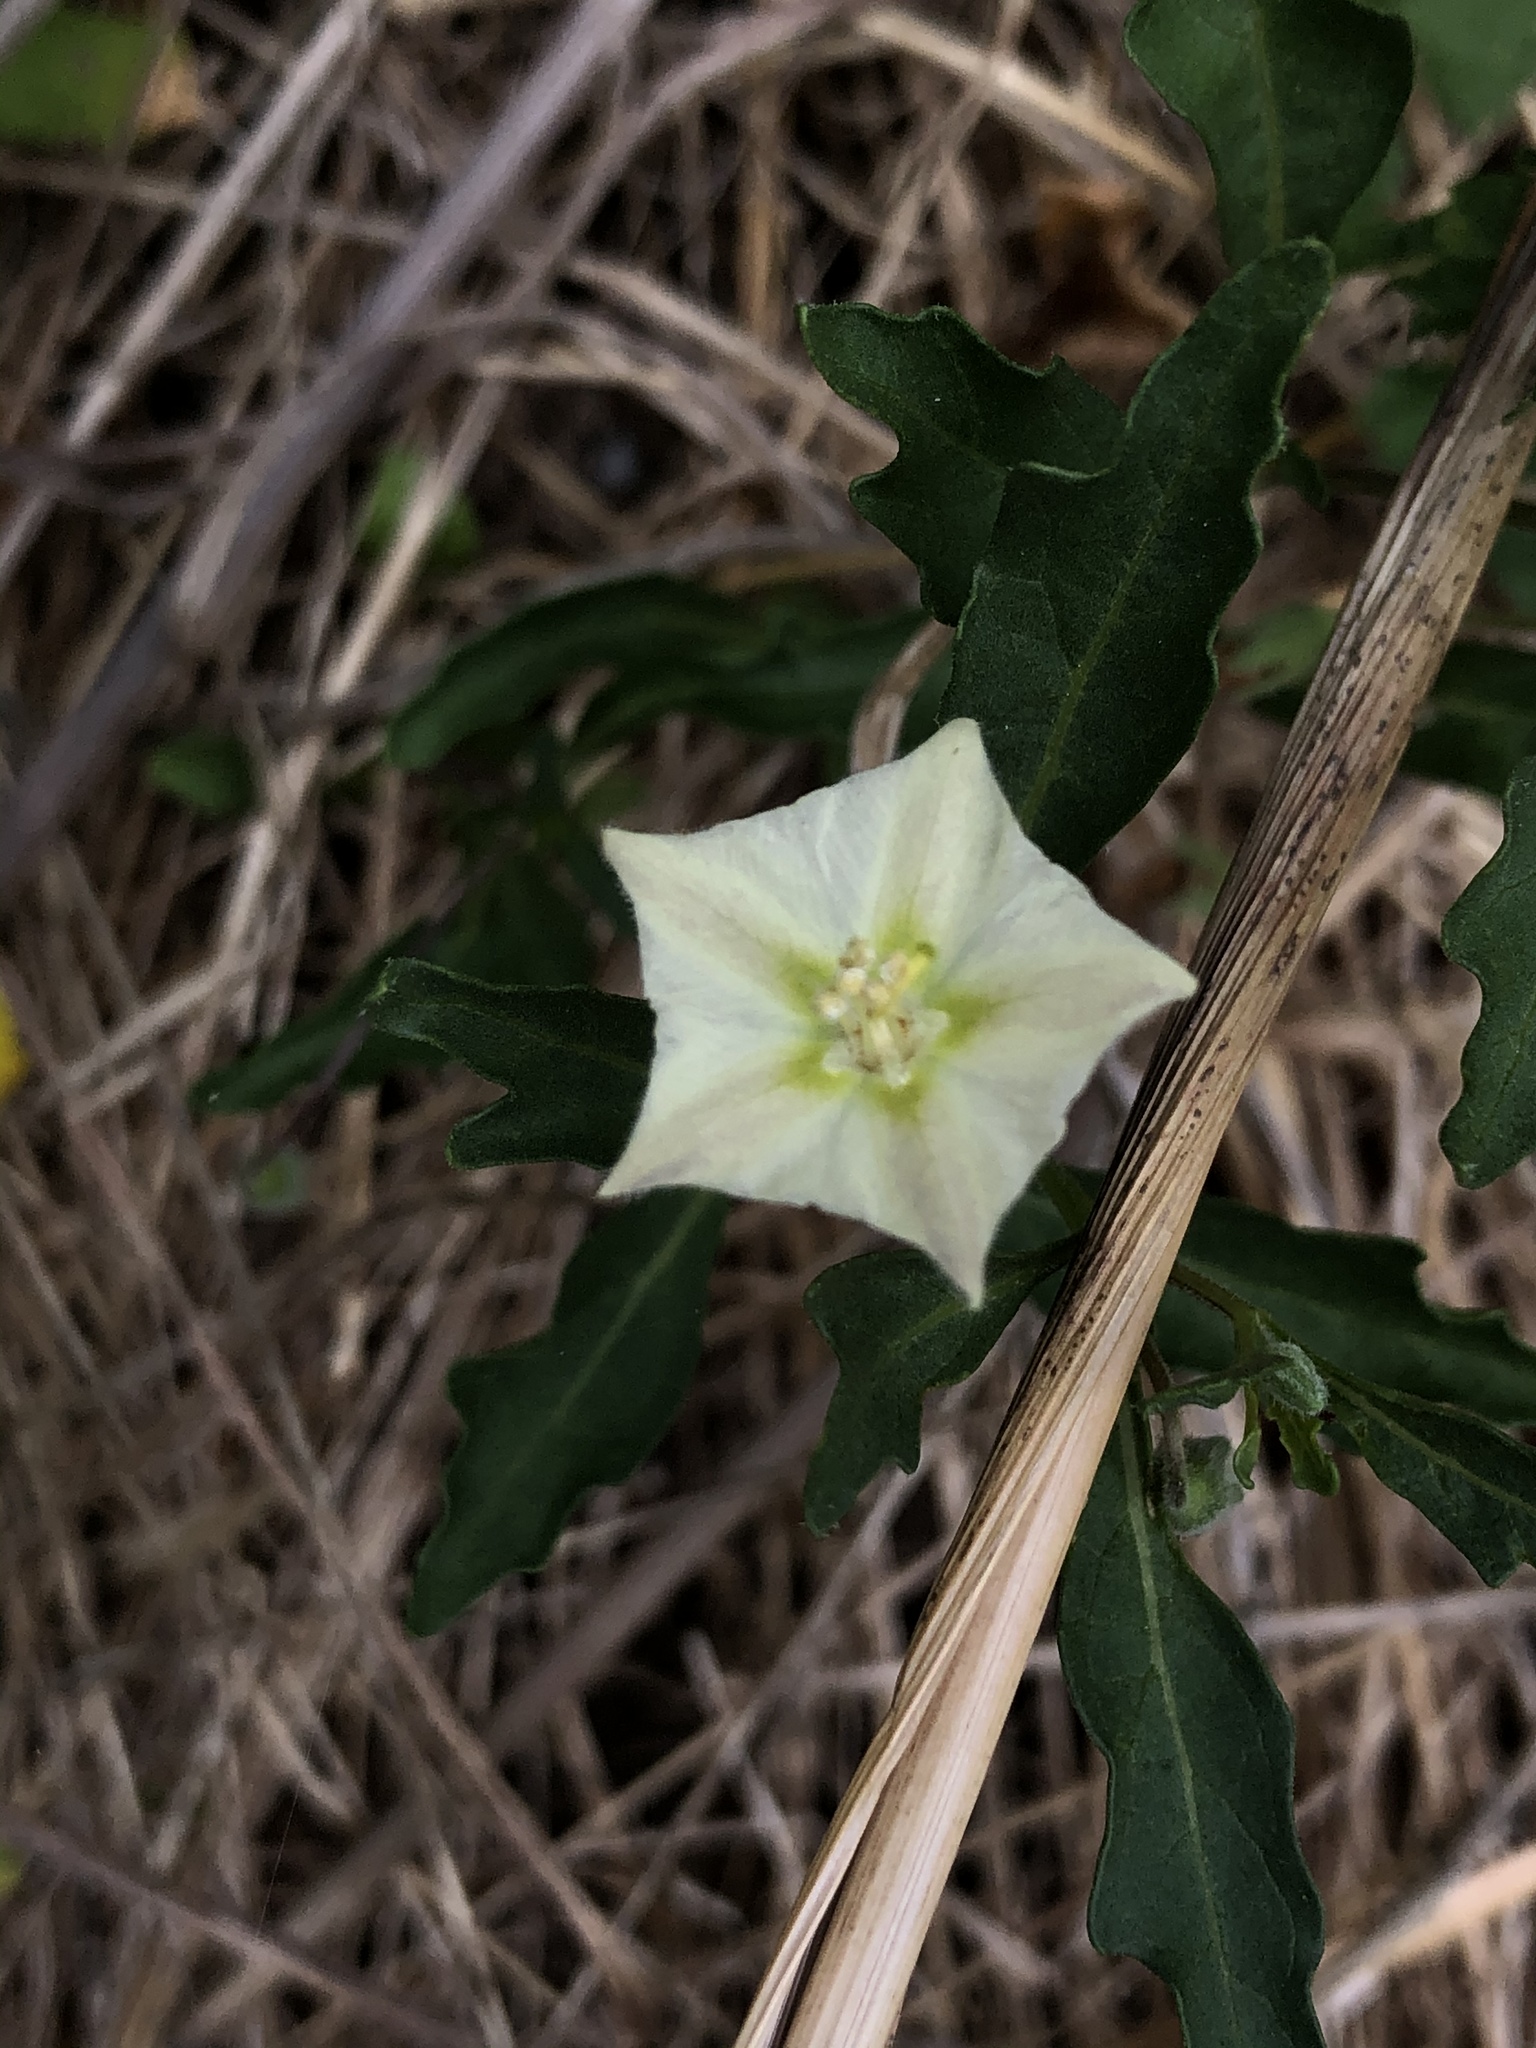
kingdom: Plantae
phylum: Tracheophyta
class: Magnoliopsida
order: Solanales
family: Solanaceae
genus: Chamaesaracha
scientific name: Chamaesaracha edwardsiana
